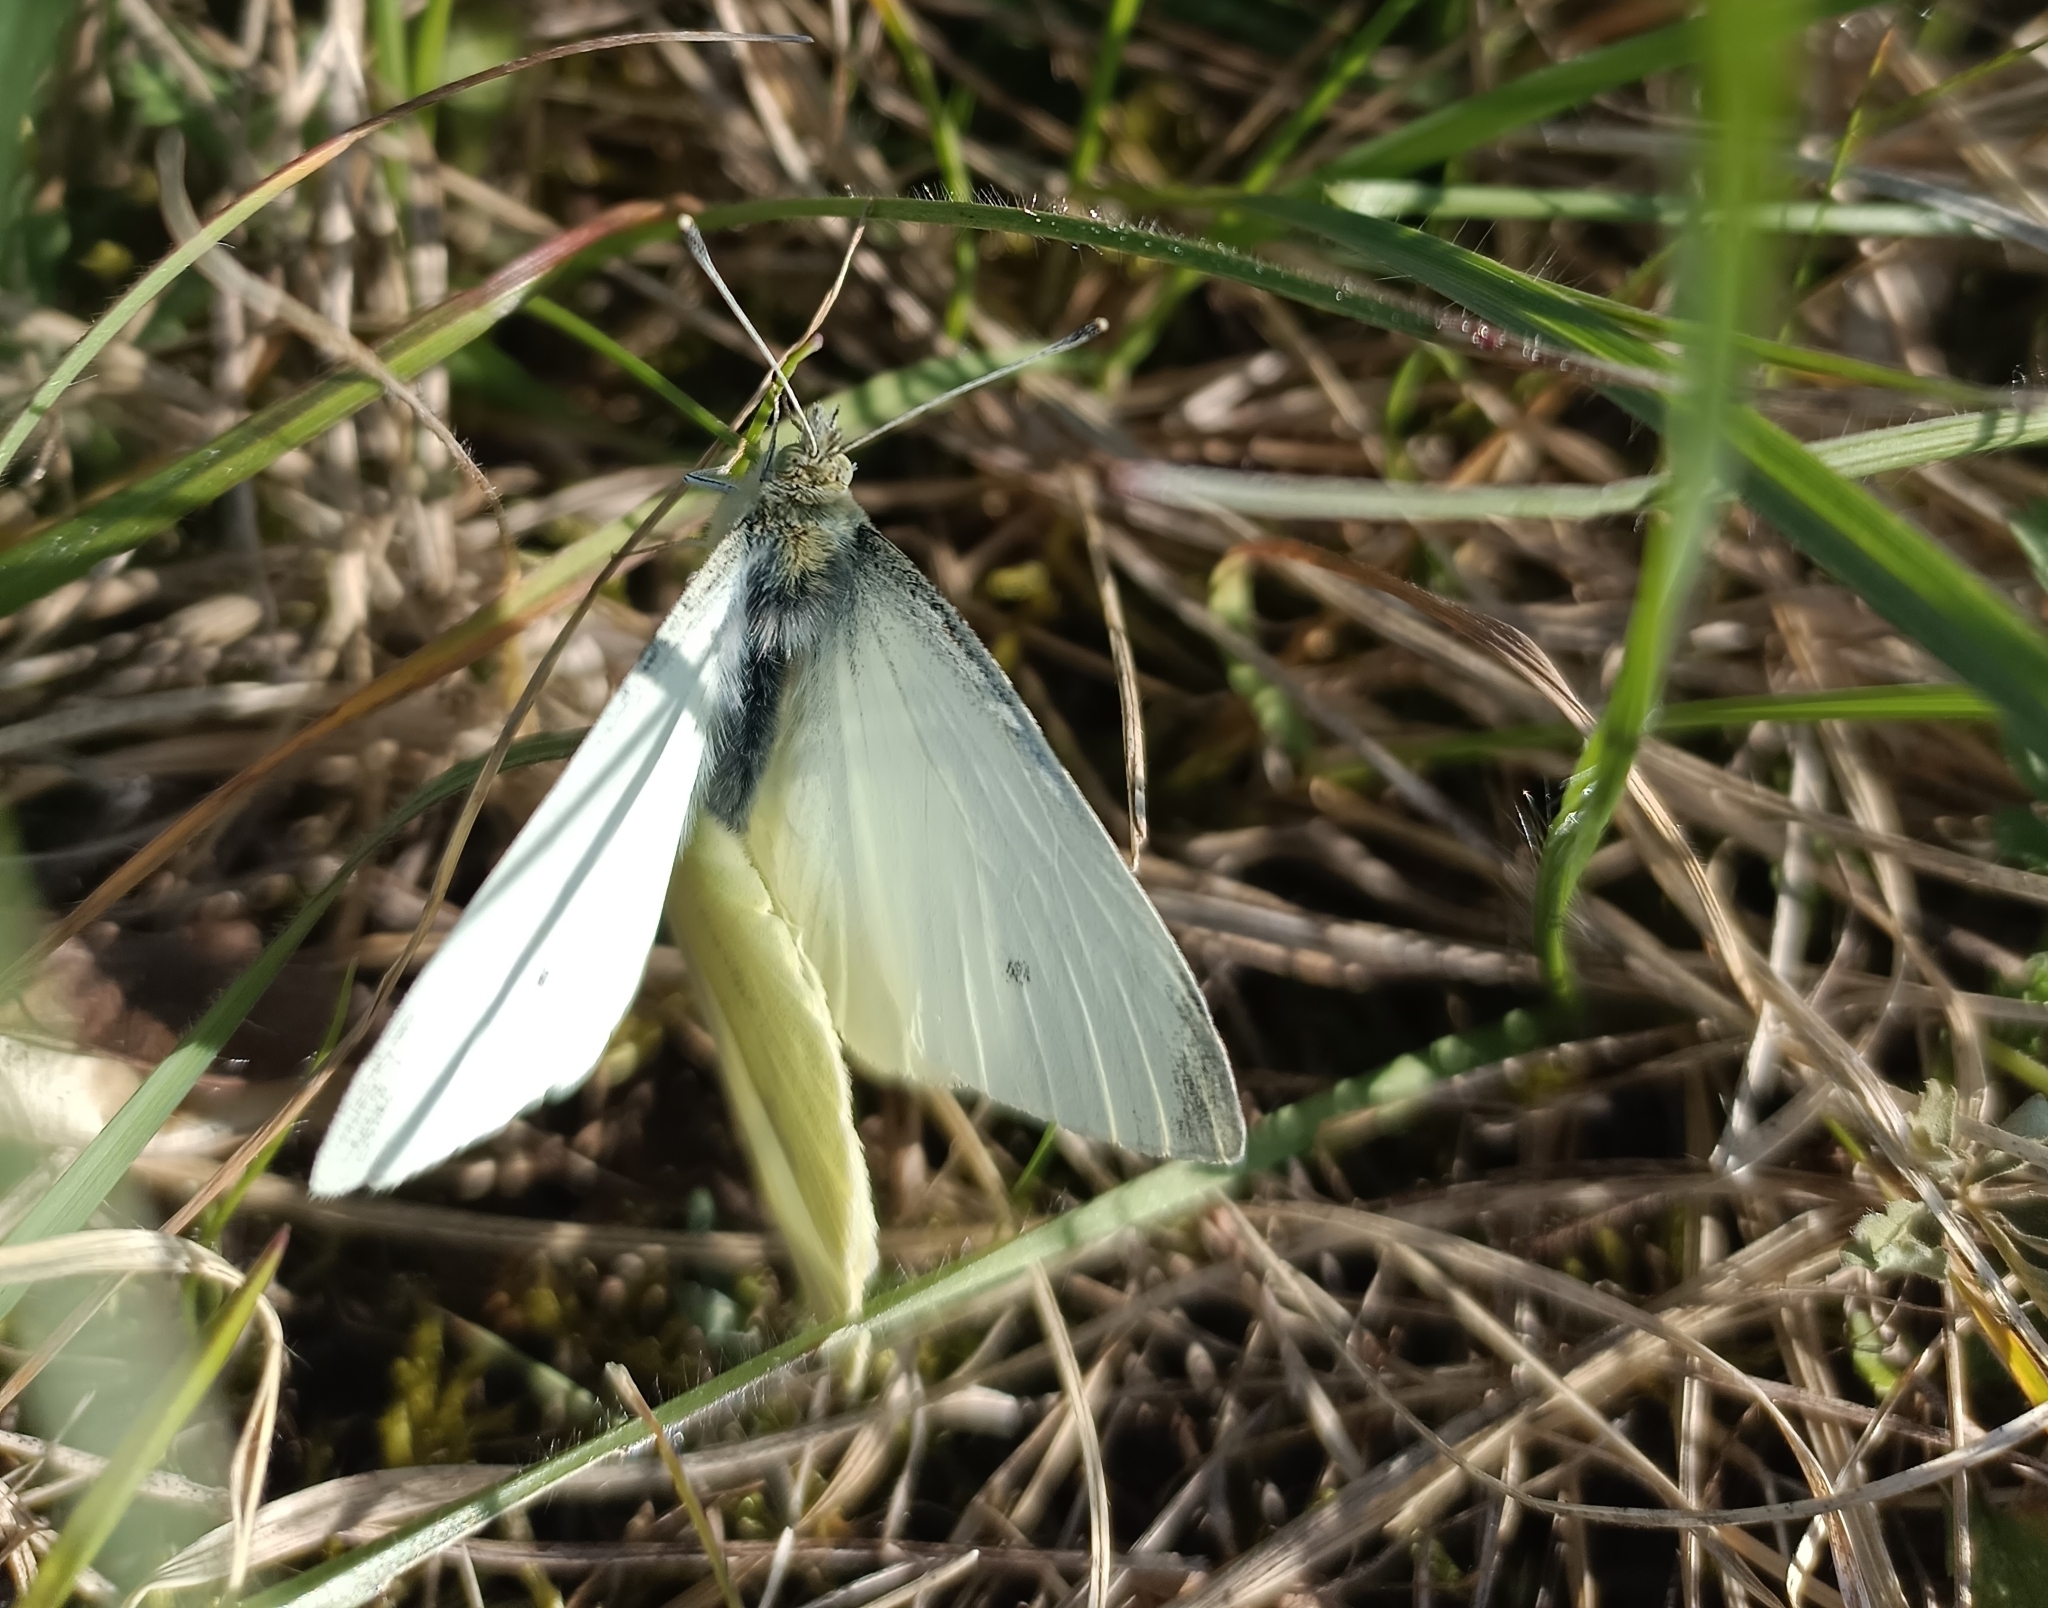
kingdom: Animalia
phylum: Arthropoda
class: Insecta
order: Lepidoptera
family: Pieridae
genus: Pieris
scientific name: Pieris rapae
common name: Small white
